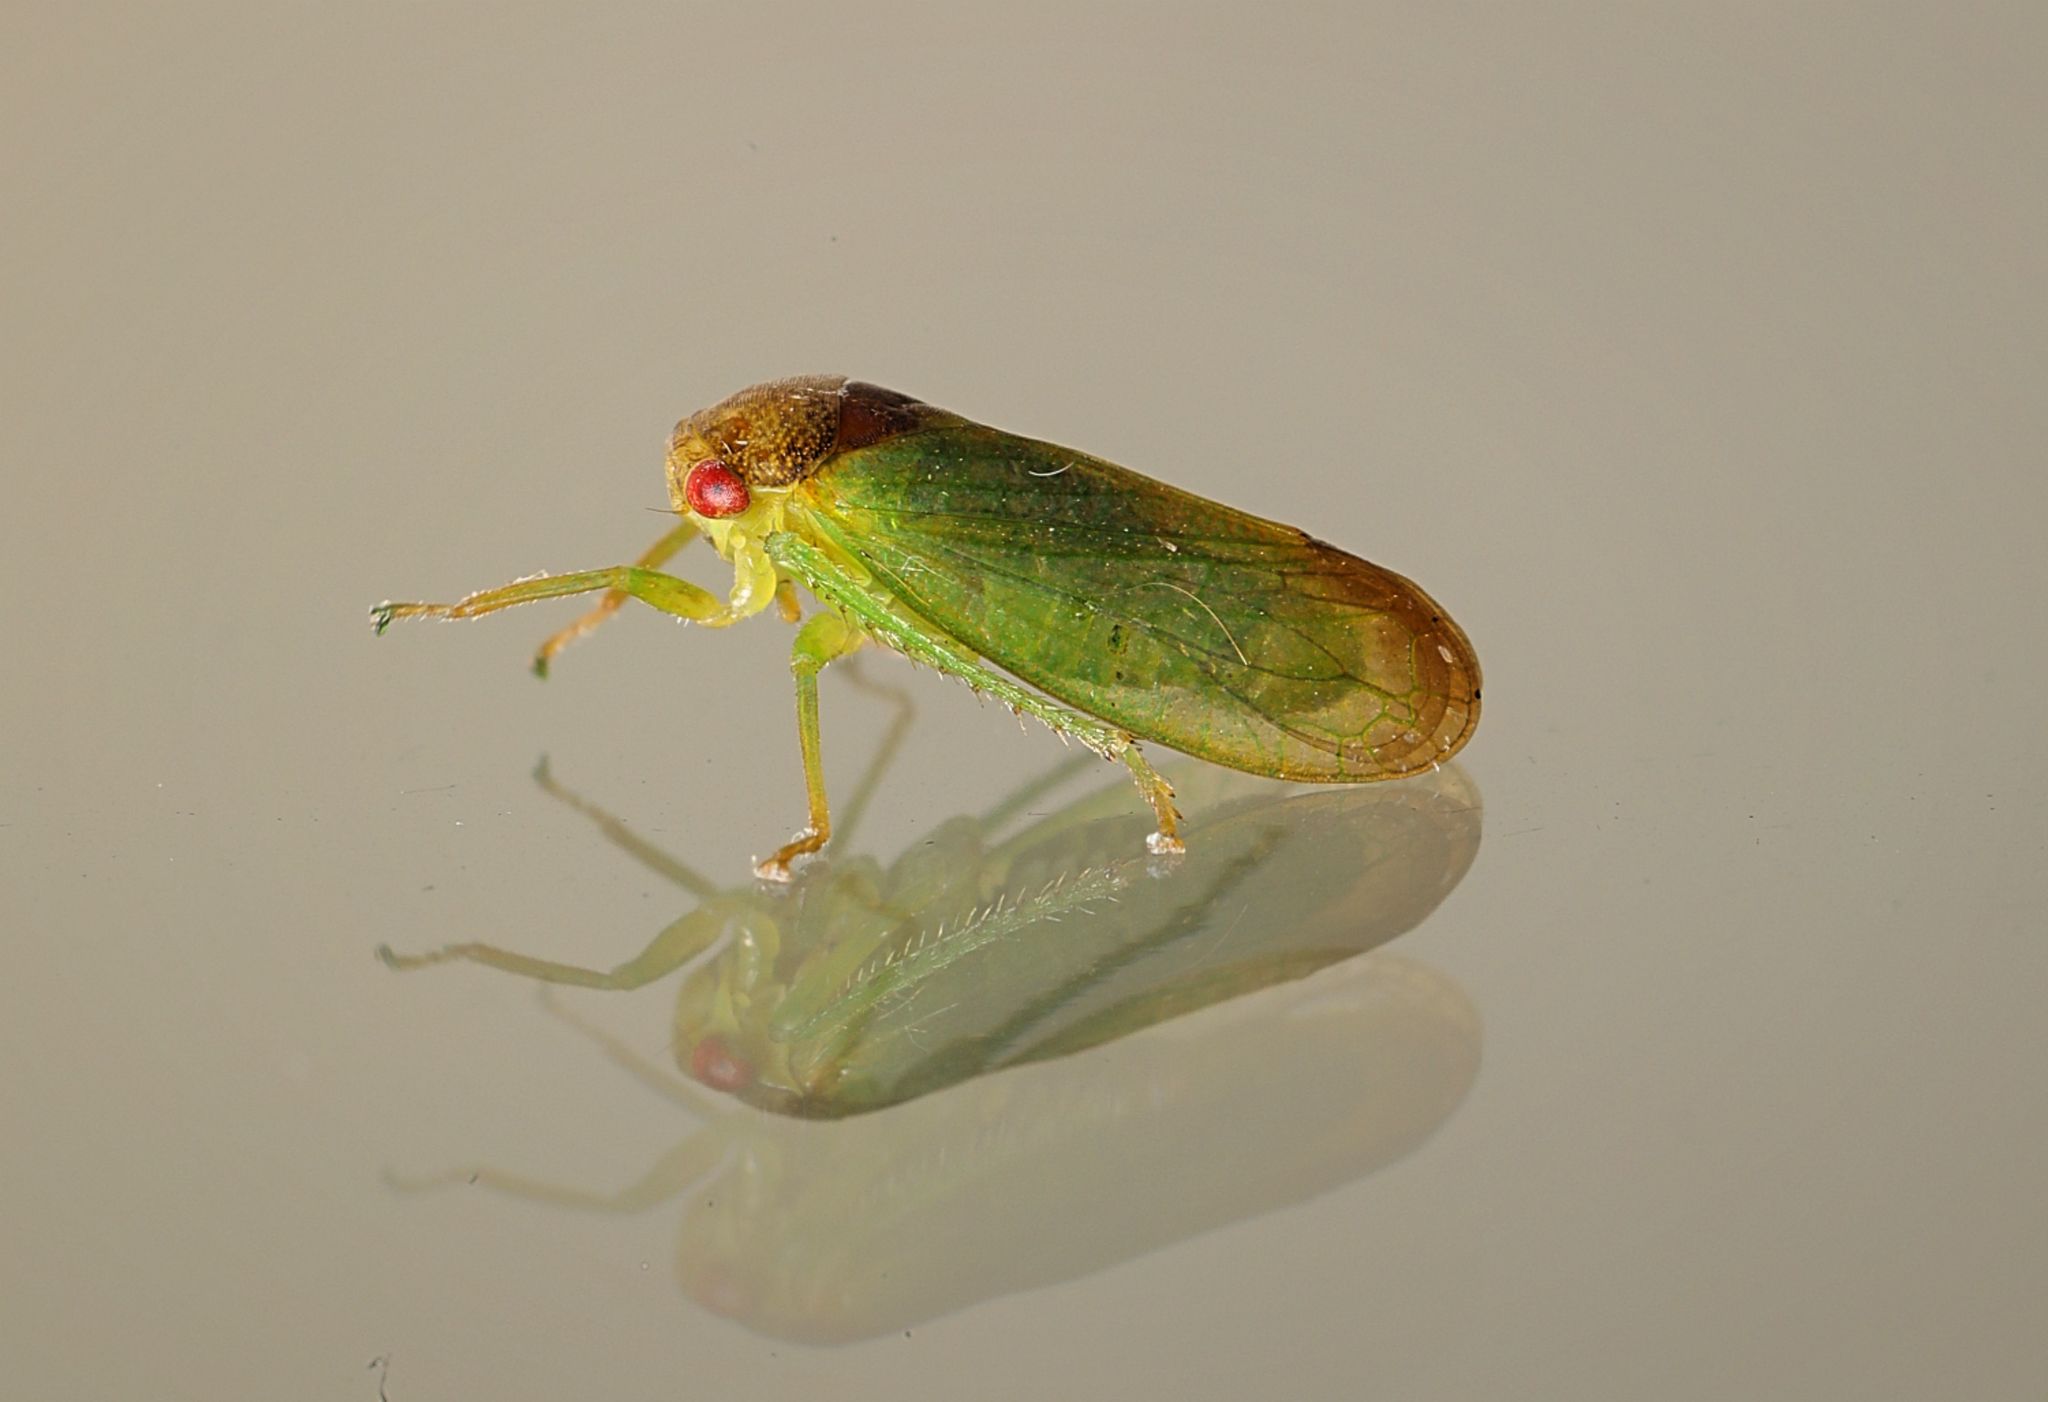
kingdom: Animalia
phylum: Arthropoda
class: Insecta
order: Hemiptera
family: Cicadellidae
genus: Iassus
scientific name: Iassus lanio
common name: Leafhopper
